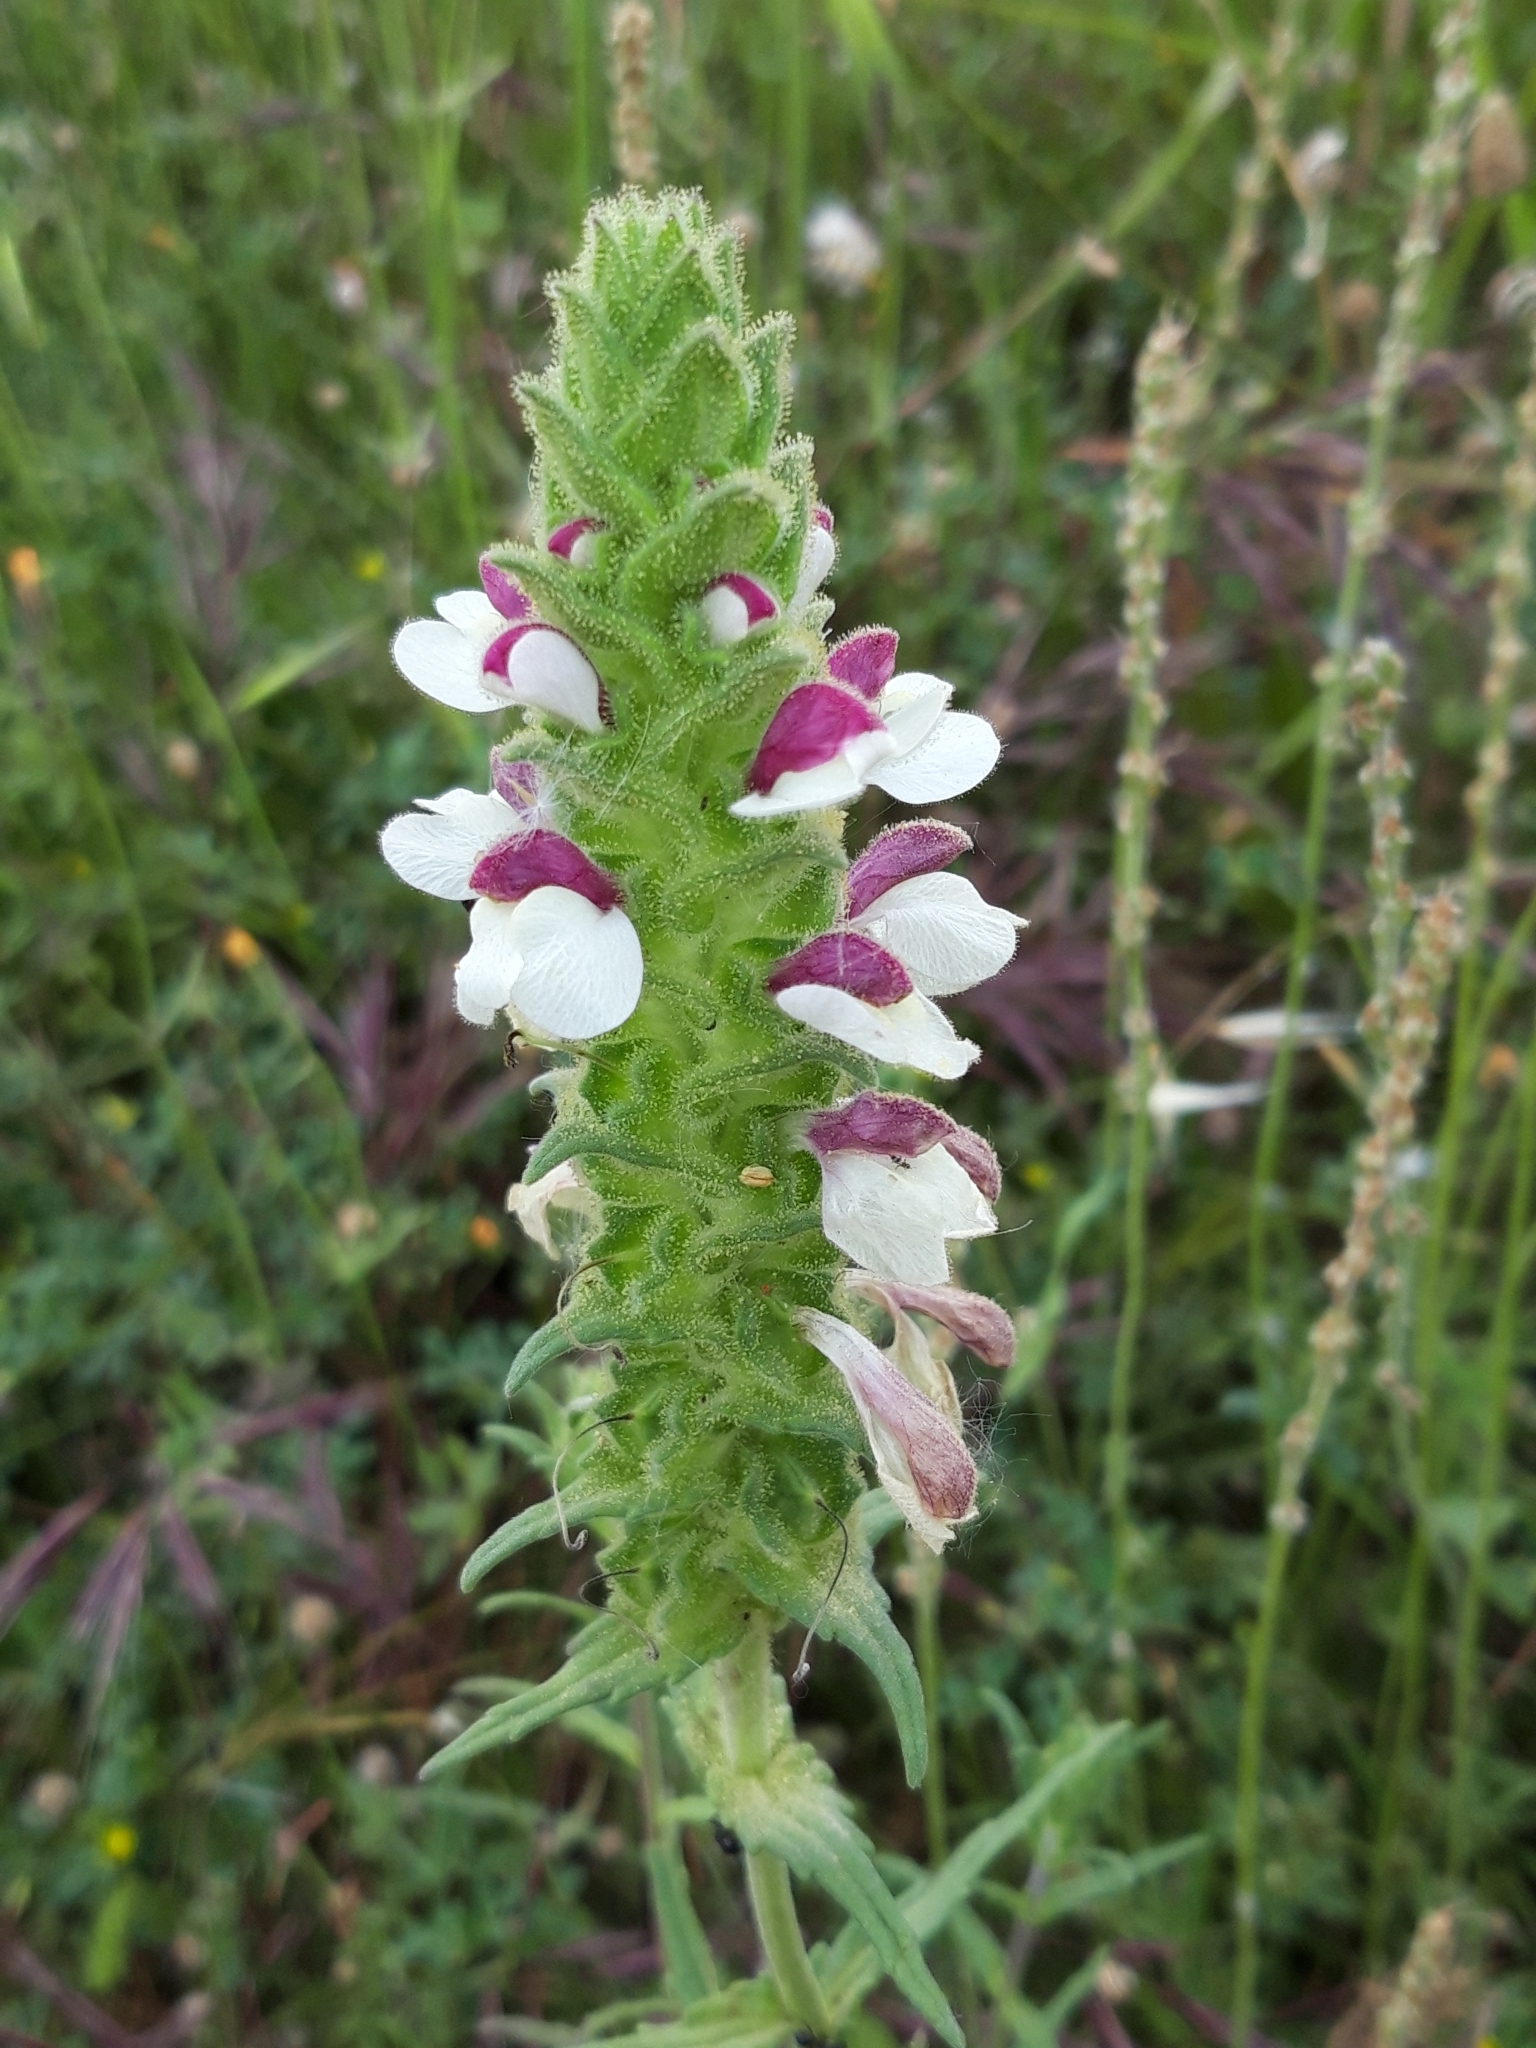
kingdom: Plantae
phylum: Tracheophyta
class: Magnoliopsida
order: Lamiales
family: Orobanchaceae
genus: Bellardia
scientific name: Bellardia trixago
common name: Mediterranean lineseed
